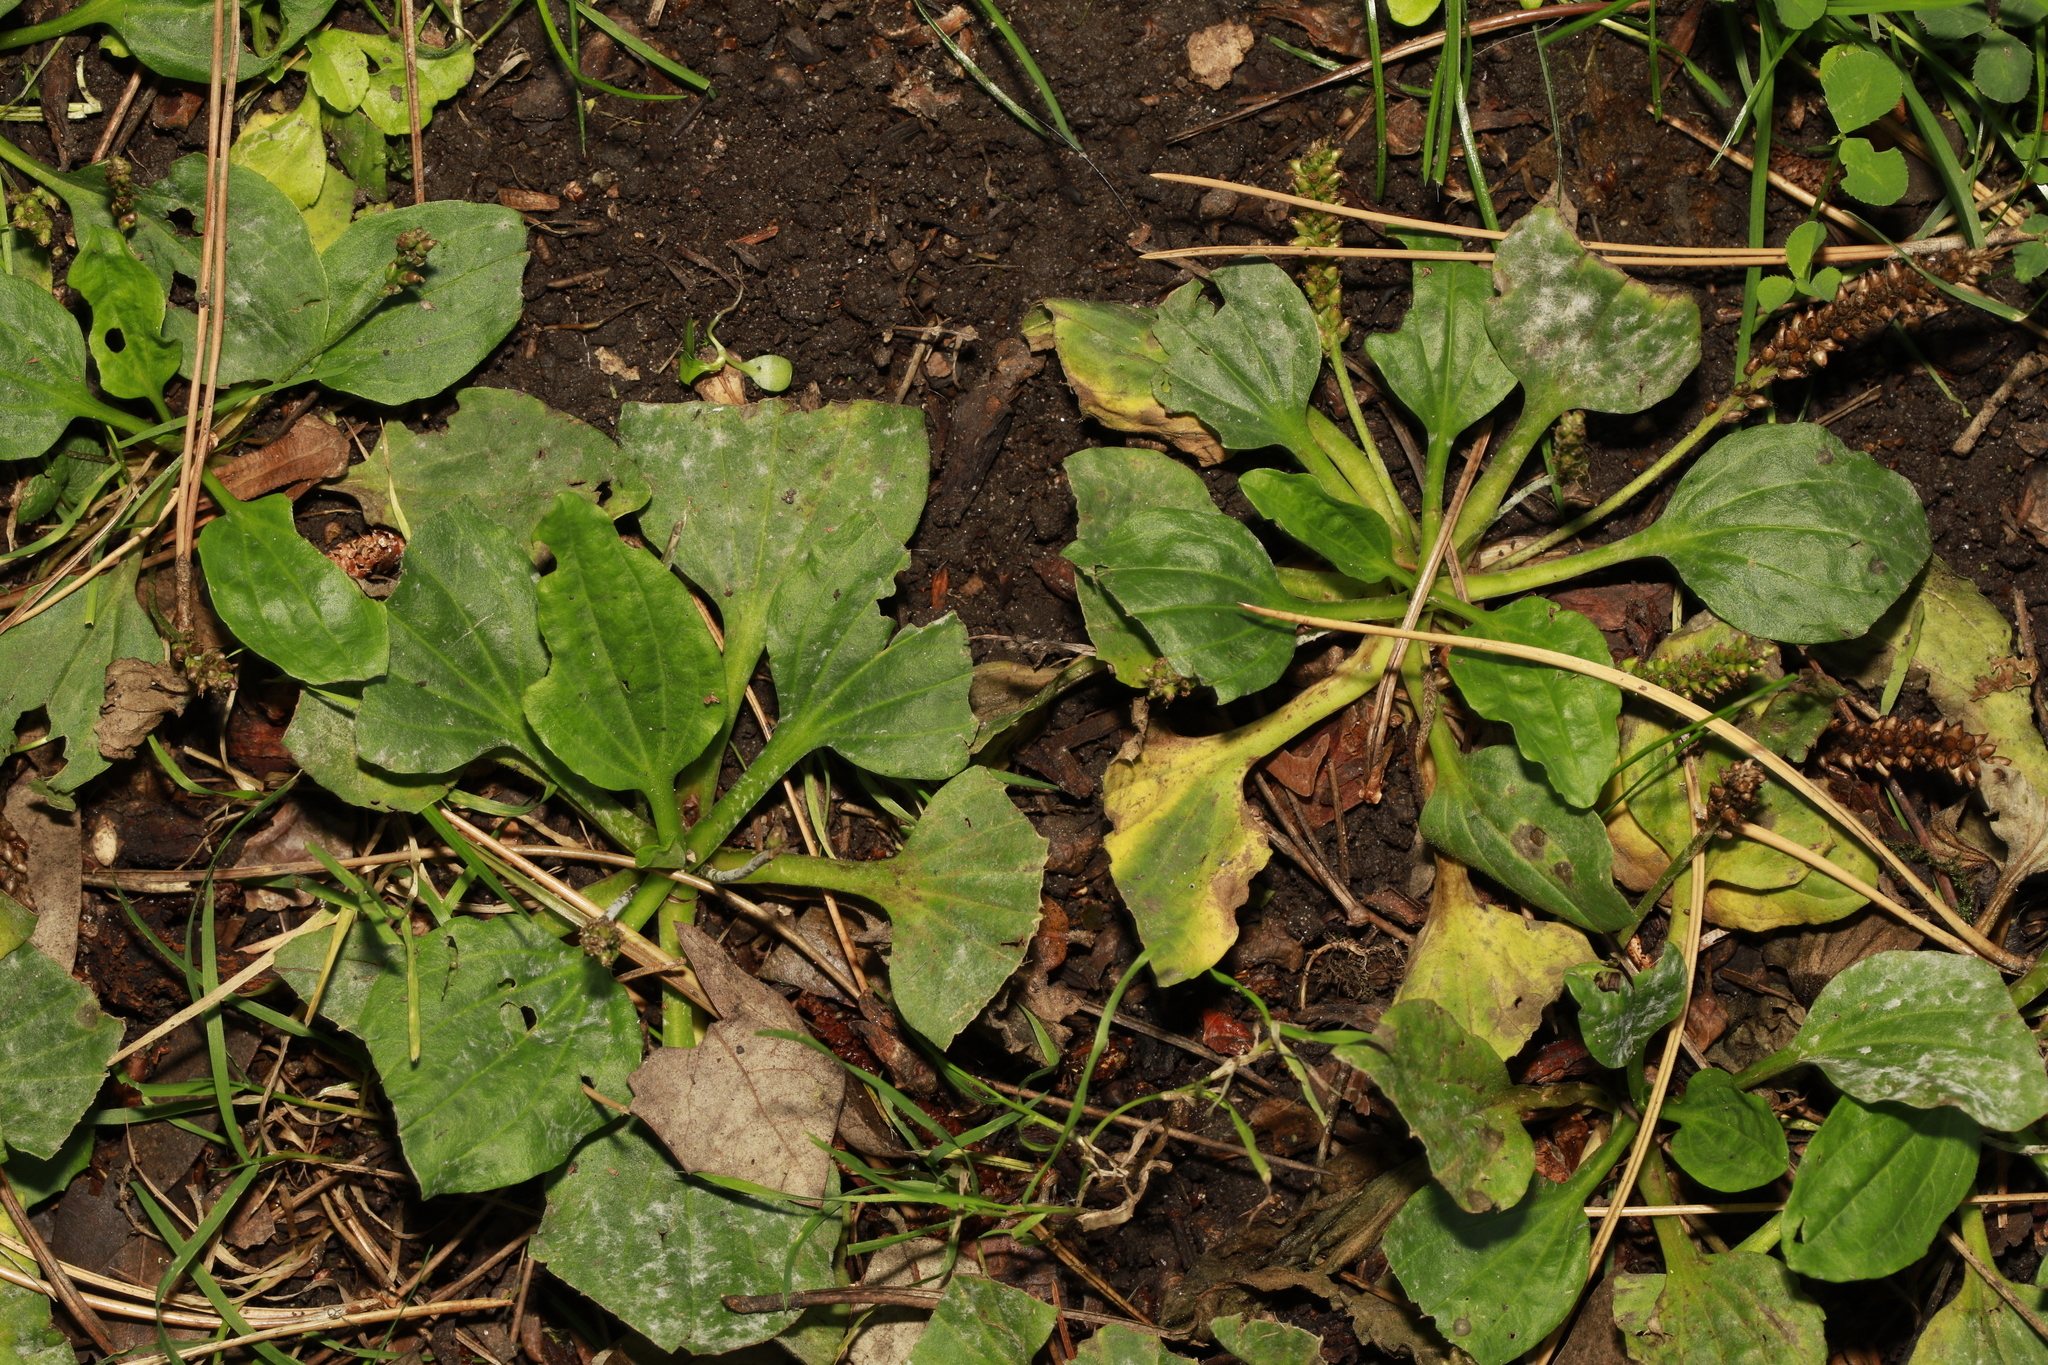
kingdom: Plantae
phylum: Tracheophyta
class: Magnoliopsida
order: Lamiales
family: Plantaginaceae
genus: Plantago
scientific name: Plantago major
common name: Common plantain
